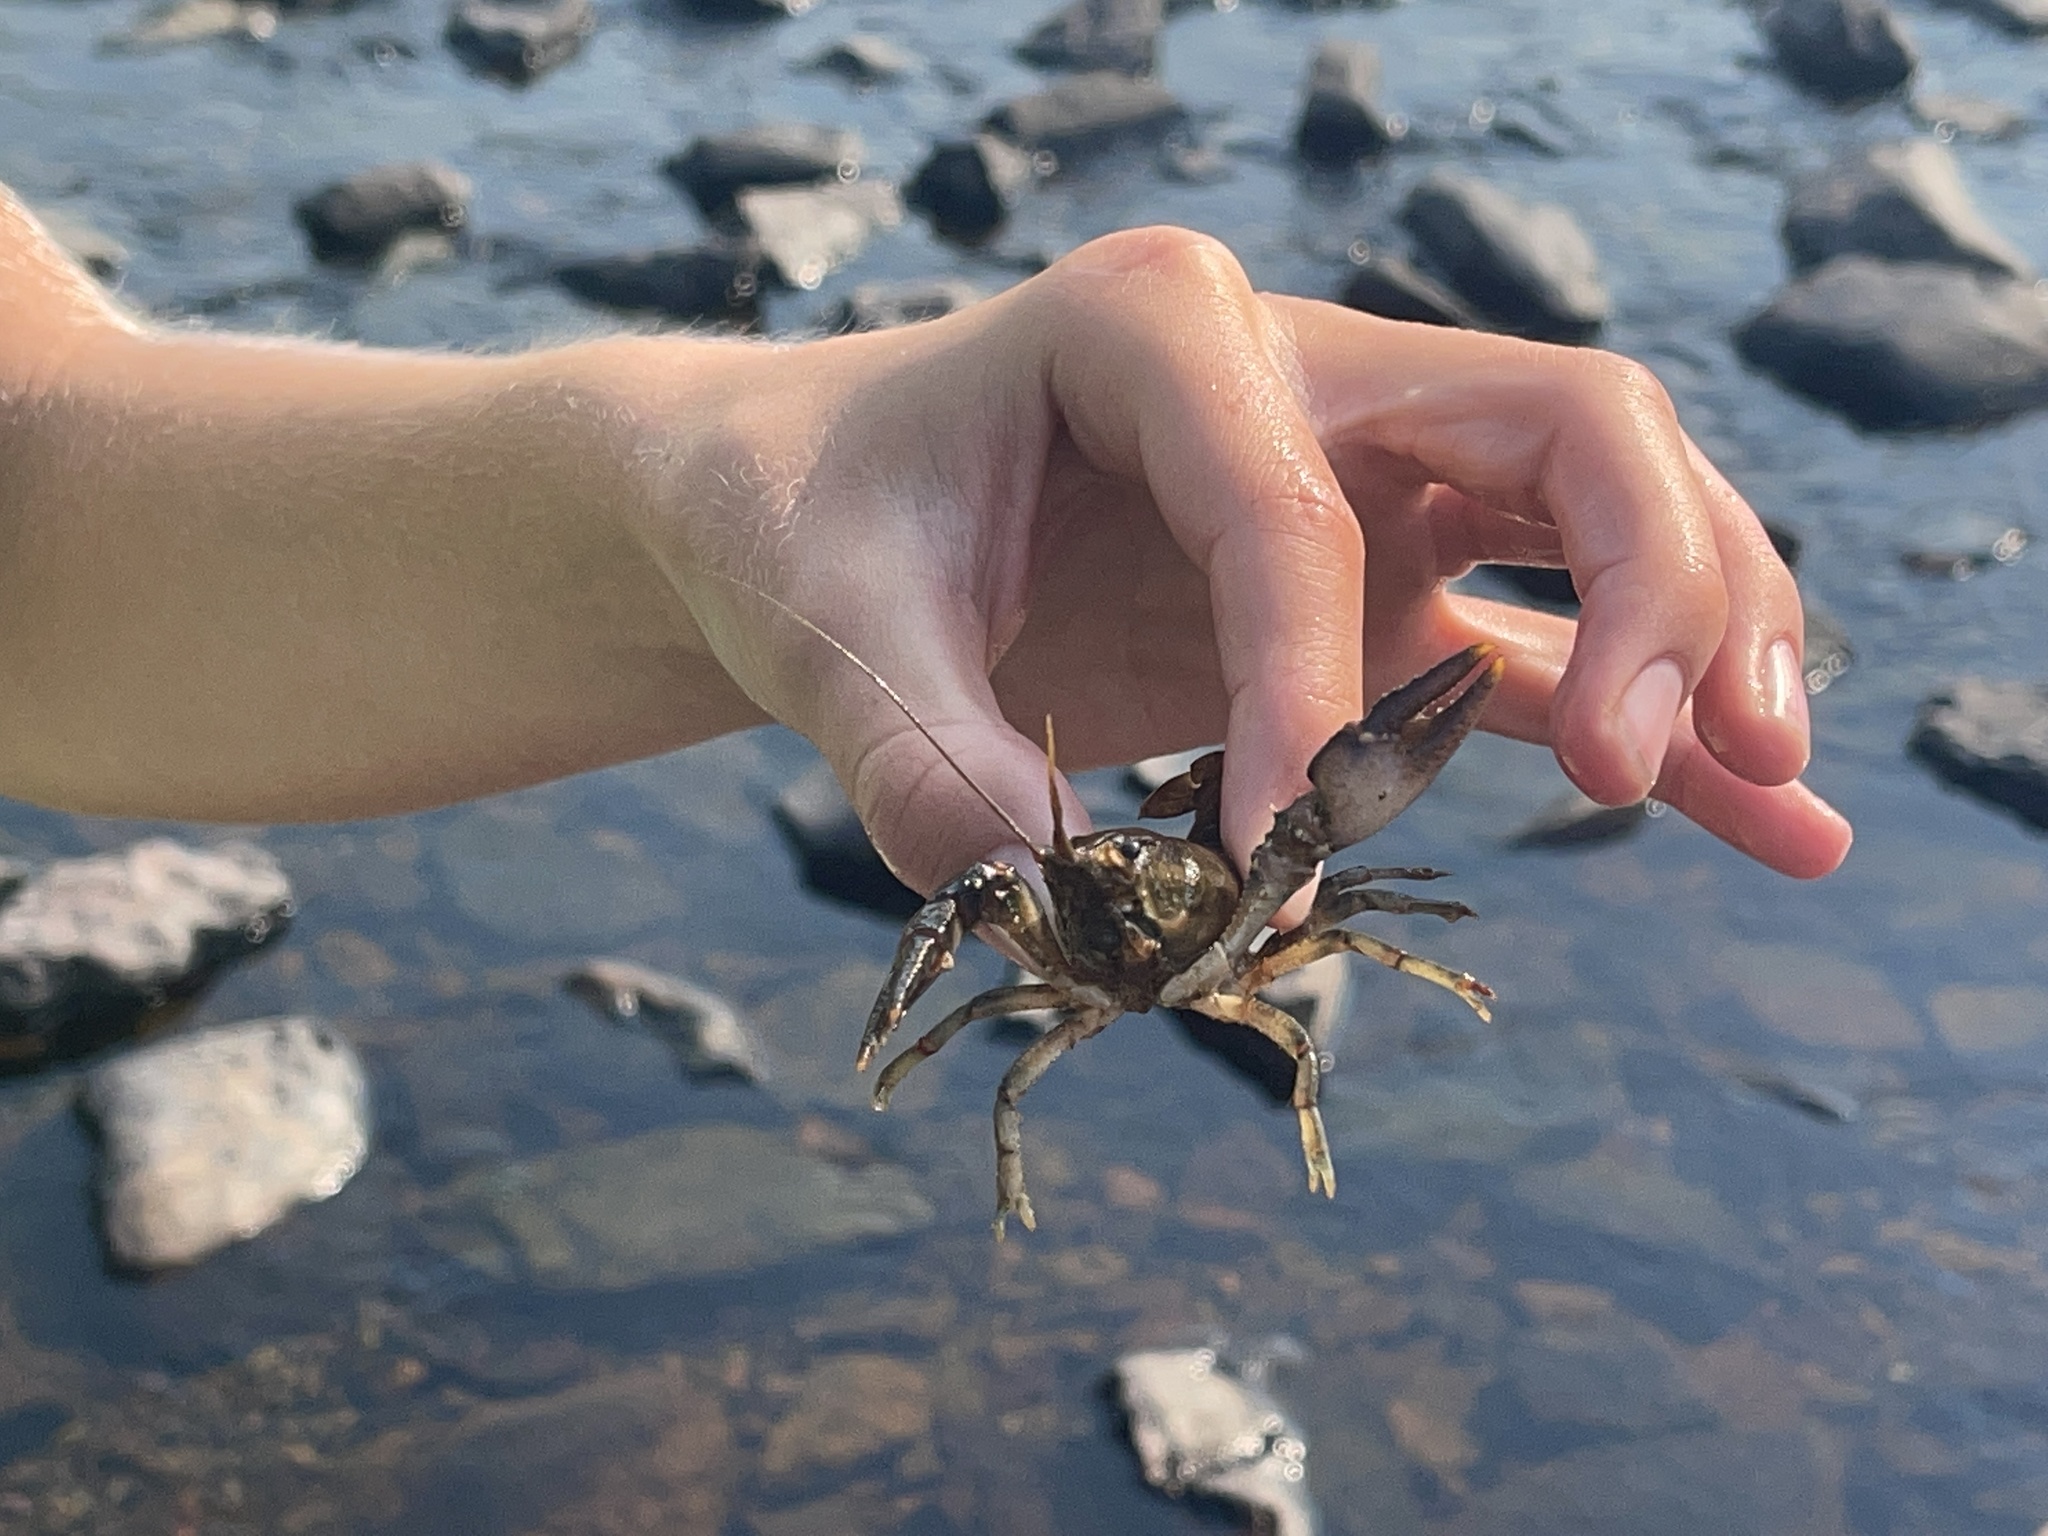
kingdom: Animalia
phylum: Arthropoda
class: Malacostraca
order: Decapoda
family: Cambaridae
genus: Faxonius
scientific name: Faxonius virilis
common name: Virile crayfish
